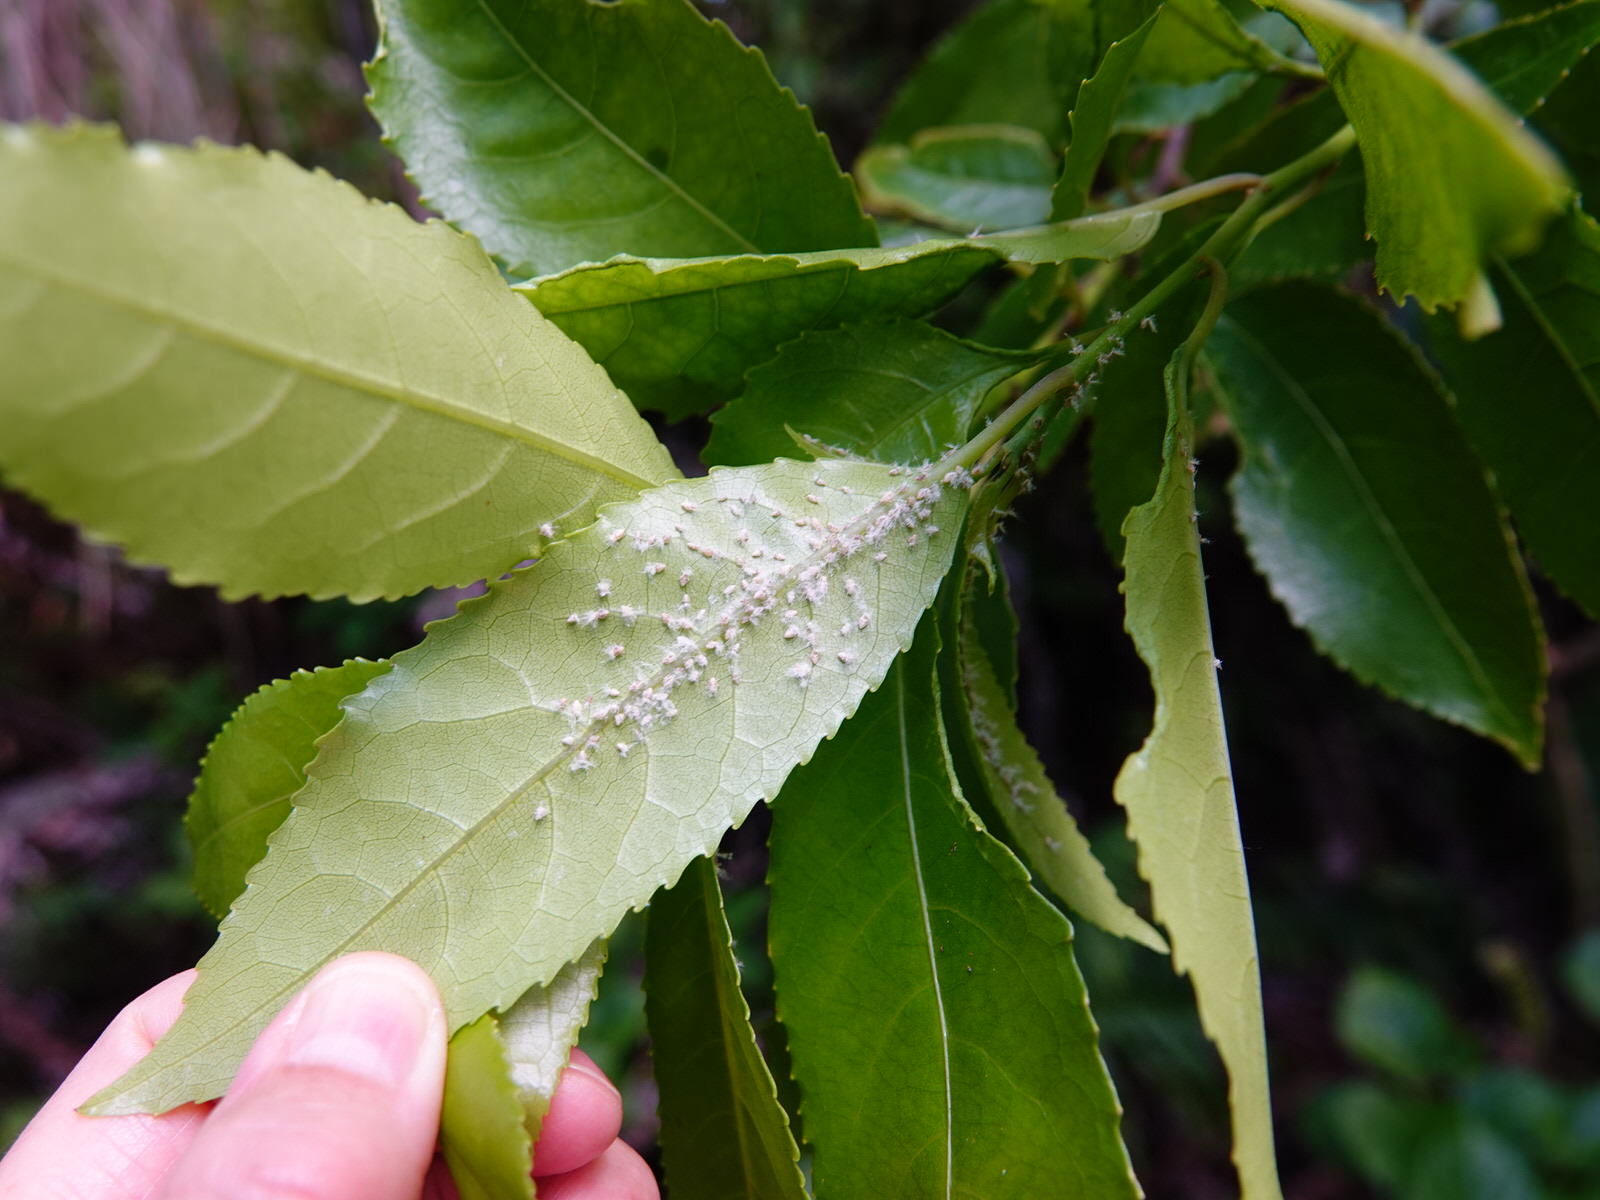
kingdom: Animalia
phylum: Arthropoda
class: Insecta
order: Hemiptera
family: Ricaniidae
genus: Scolypopa
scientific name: Scolypopa australis
